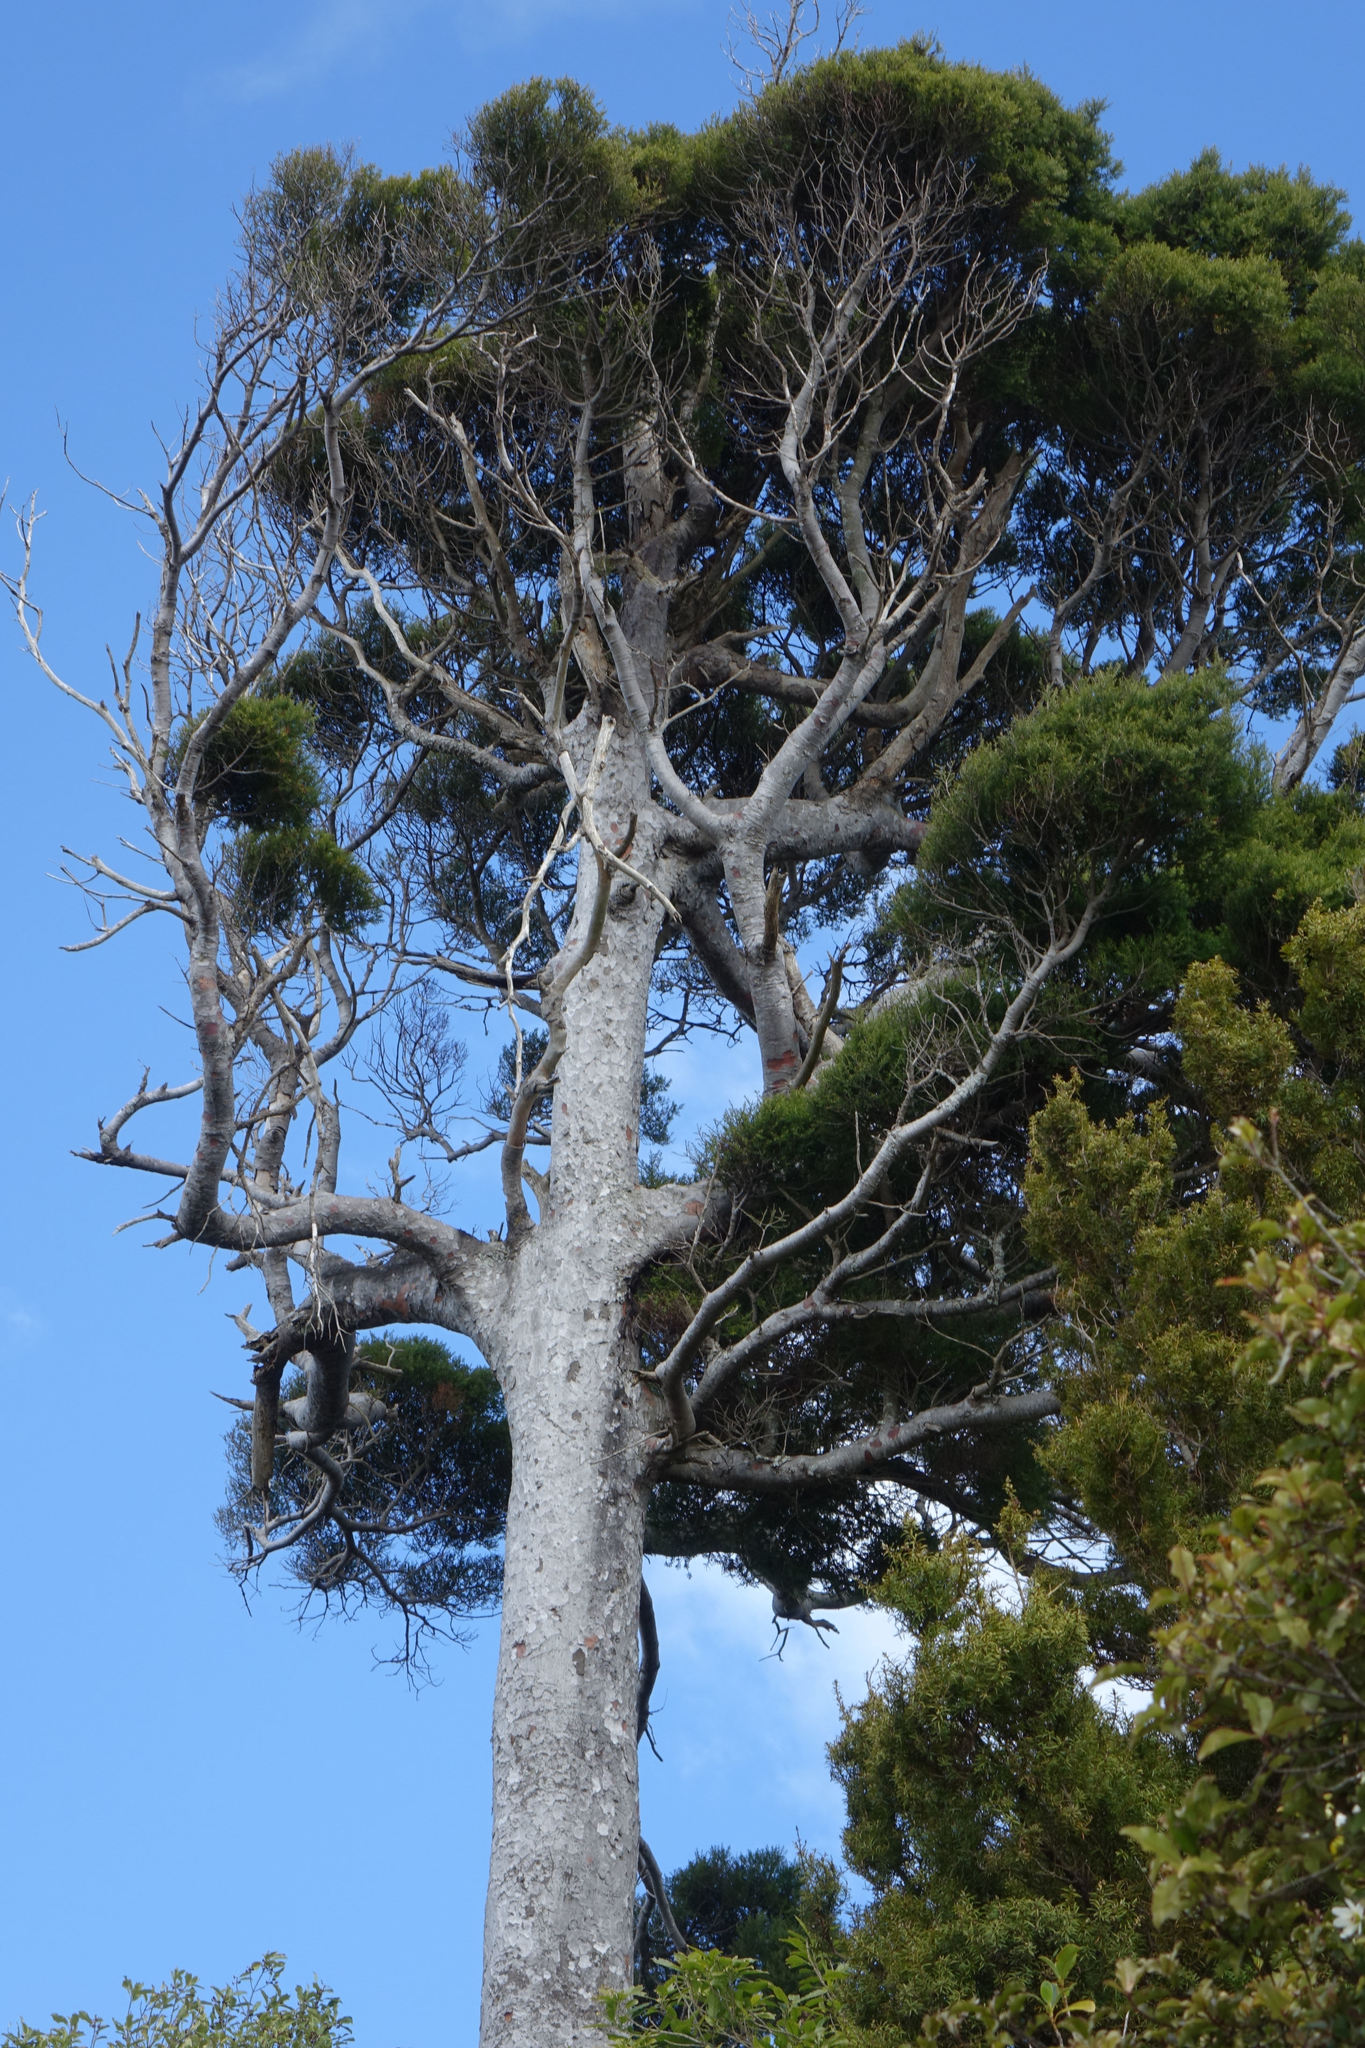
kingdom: Plantae
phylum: Tracheophyta
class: Pinopsida
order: Pinales
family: Podocarpaceae
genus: Prumnopitys
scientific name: Prumnopitys taxifolia
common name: Matai
